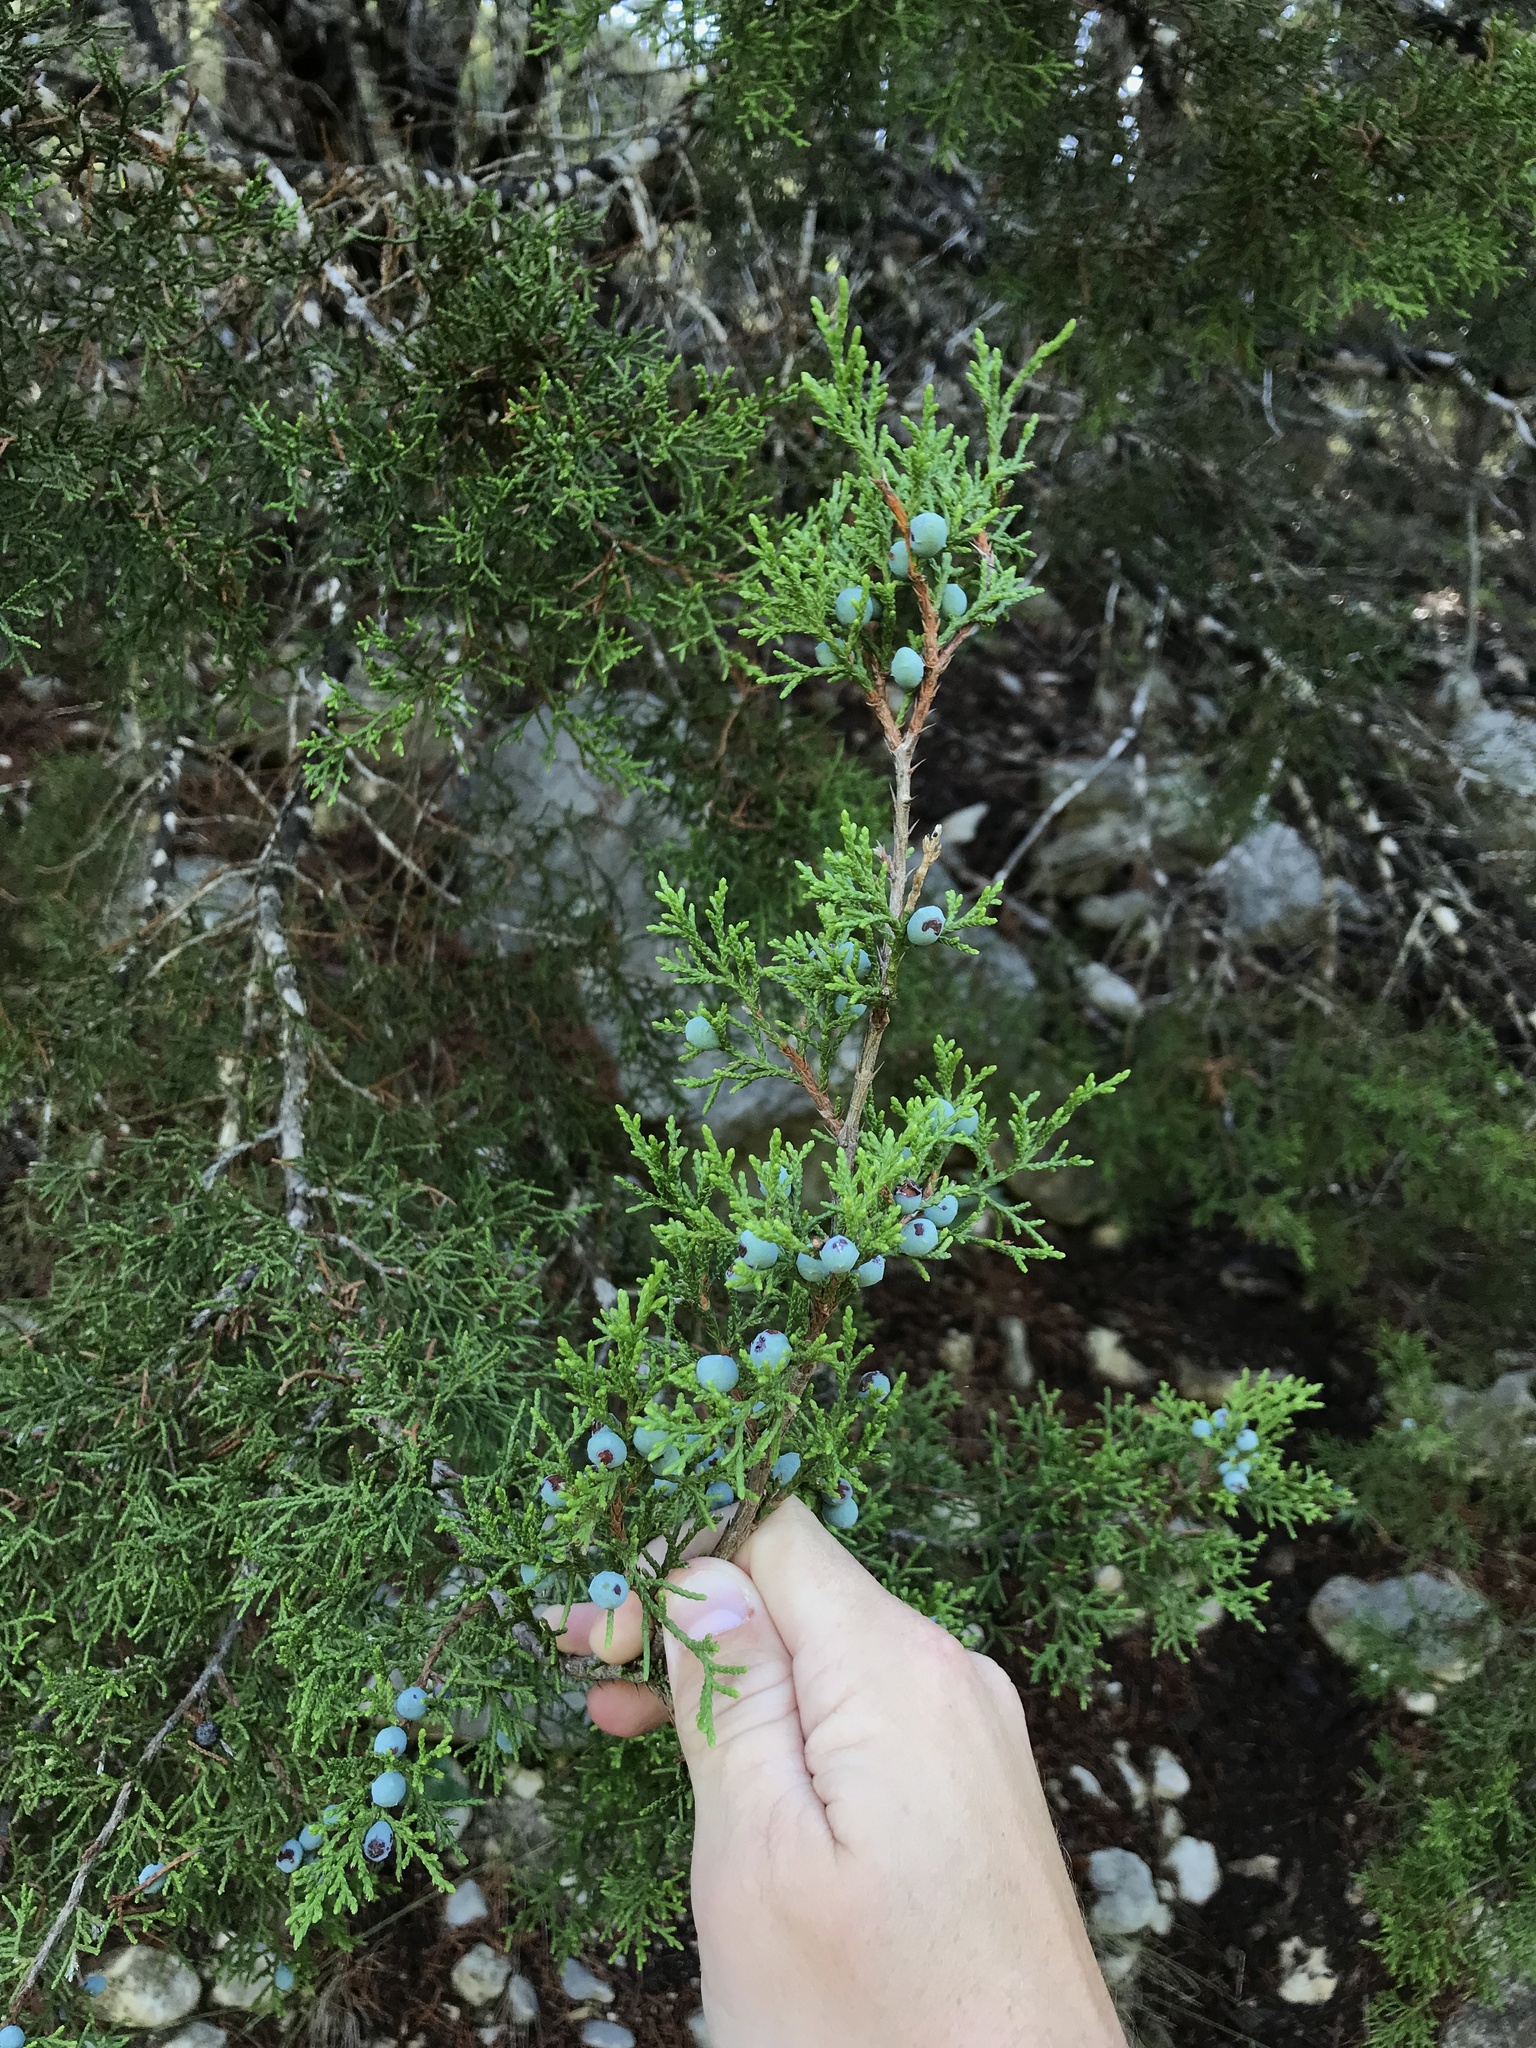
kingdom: Plantae
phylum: Tracheophyta
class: Pinopsida
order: Pinales
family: Cupressaceae
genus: Juniperus
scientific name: Juniperus ashei
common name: Mexican juniper
